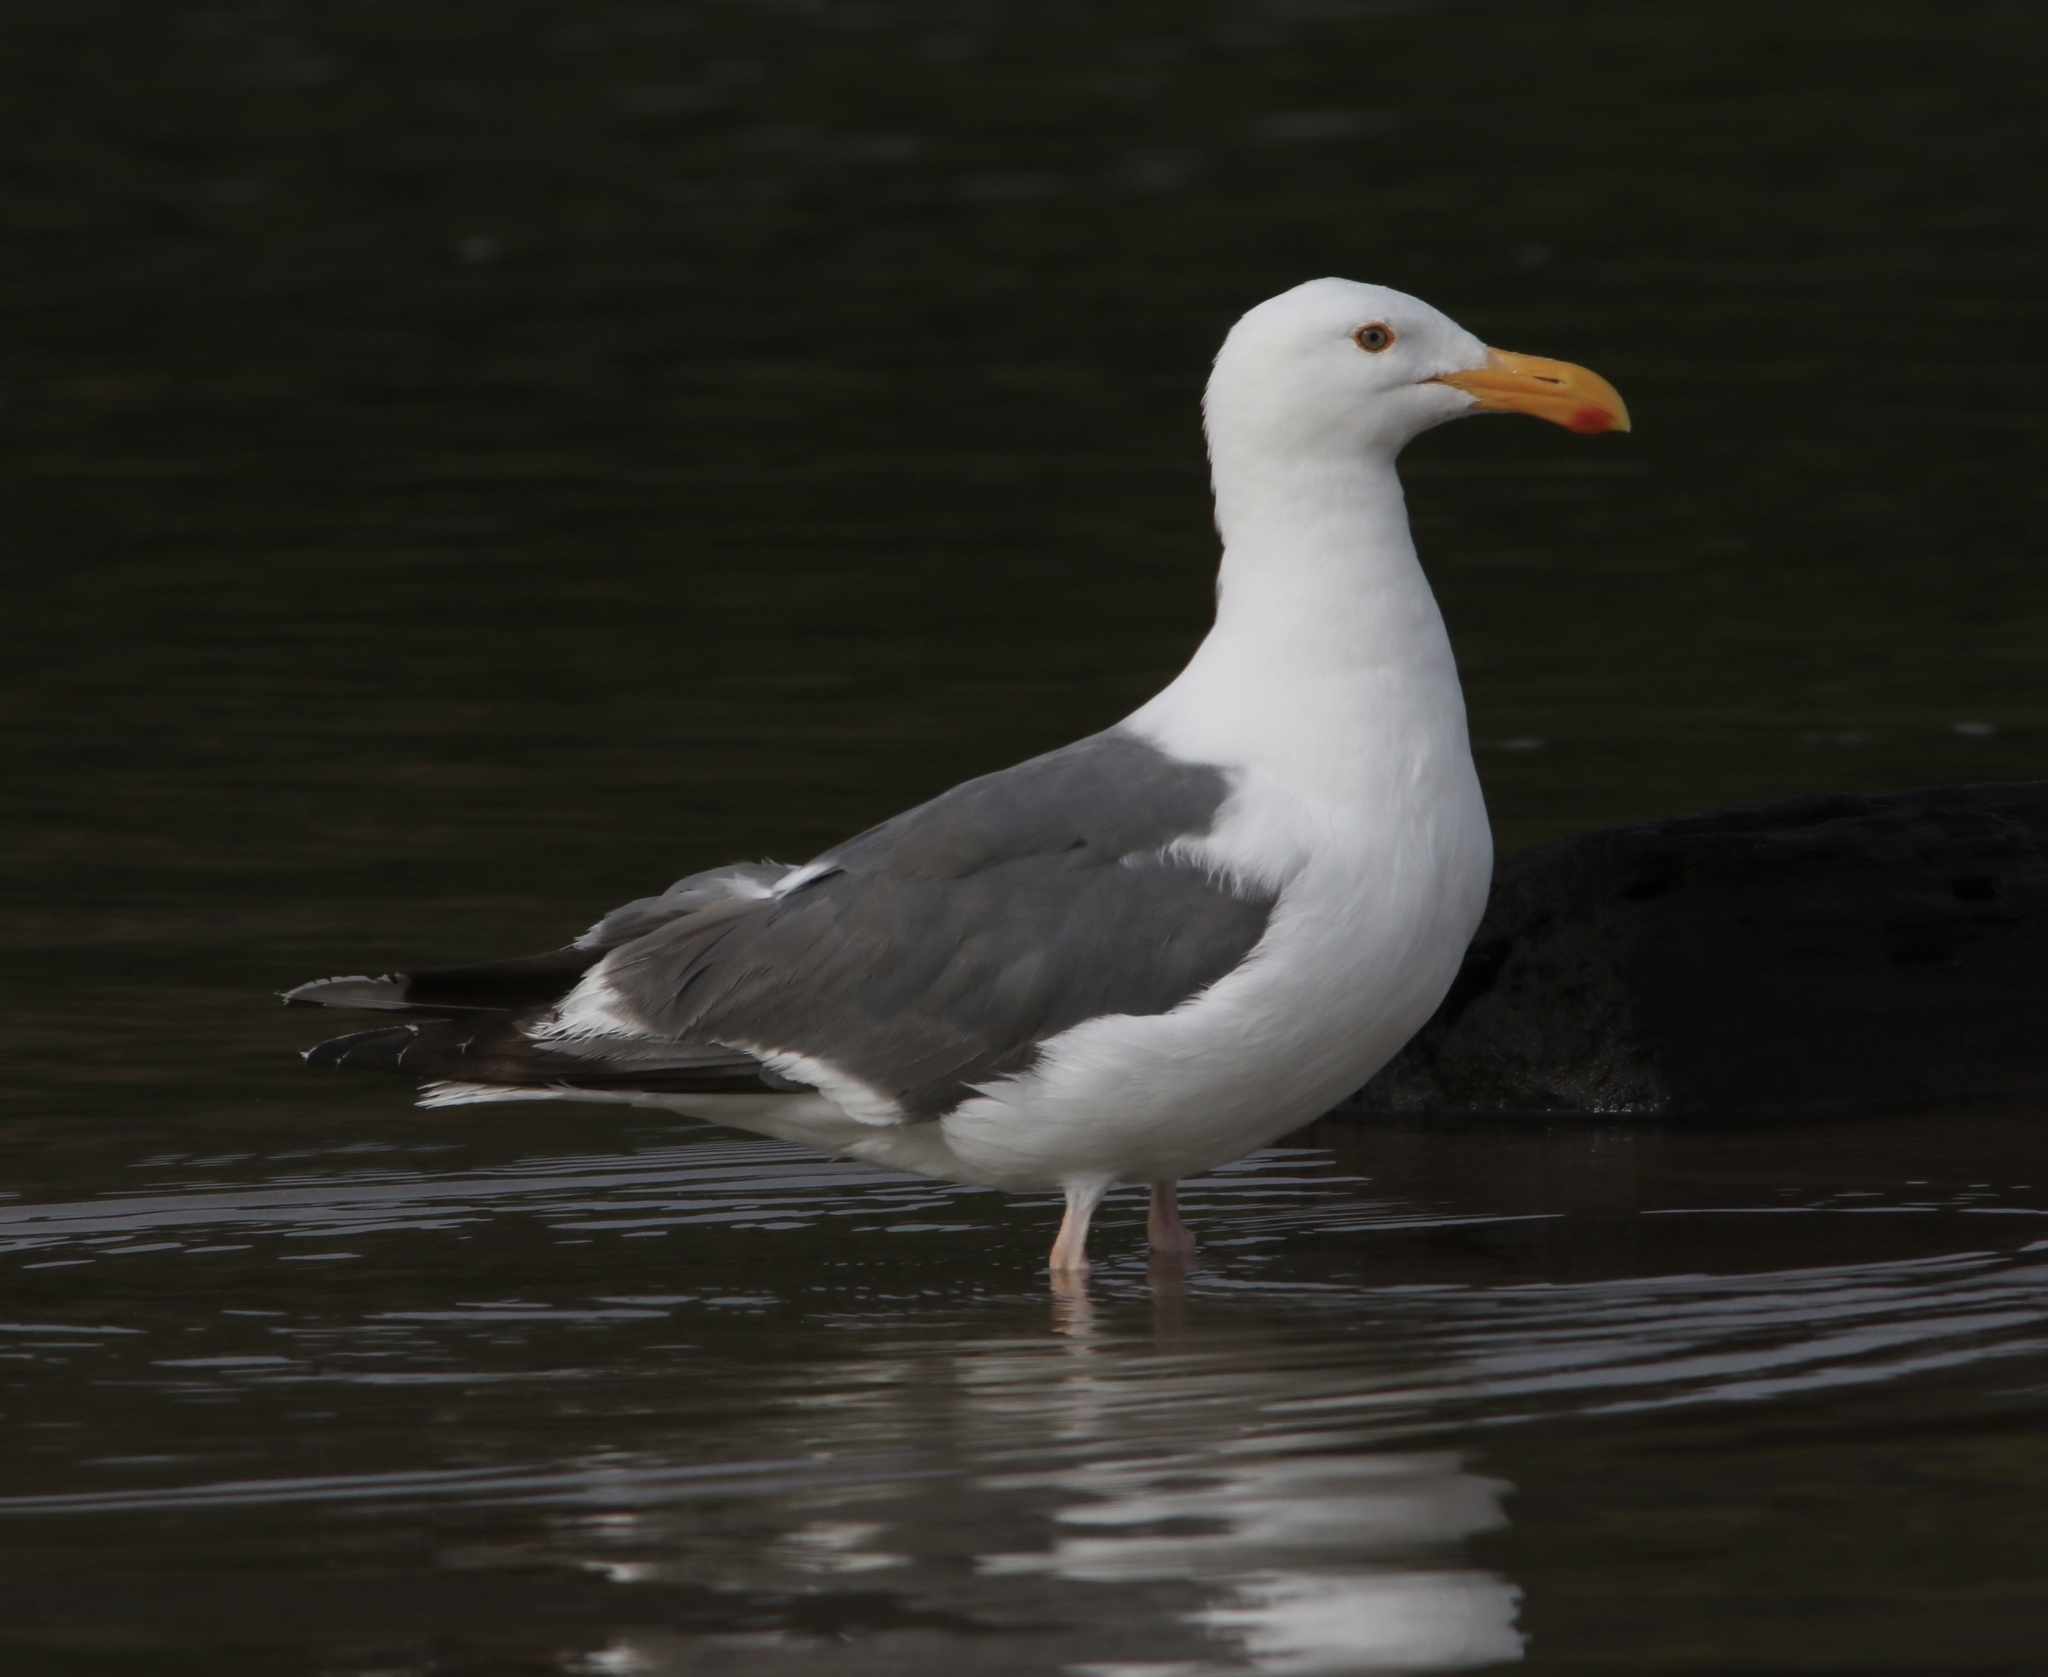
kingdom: Animalia
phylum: Chordata
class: Aves
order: Charadriiformes
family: Laridae
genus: Larus
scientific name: Larus occidentalis
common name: Western gull
